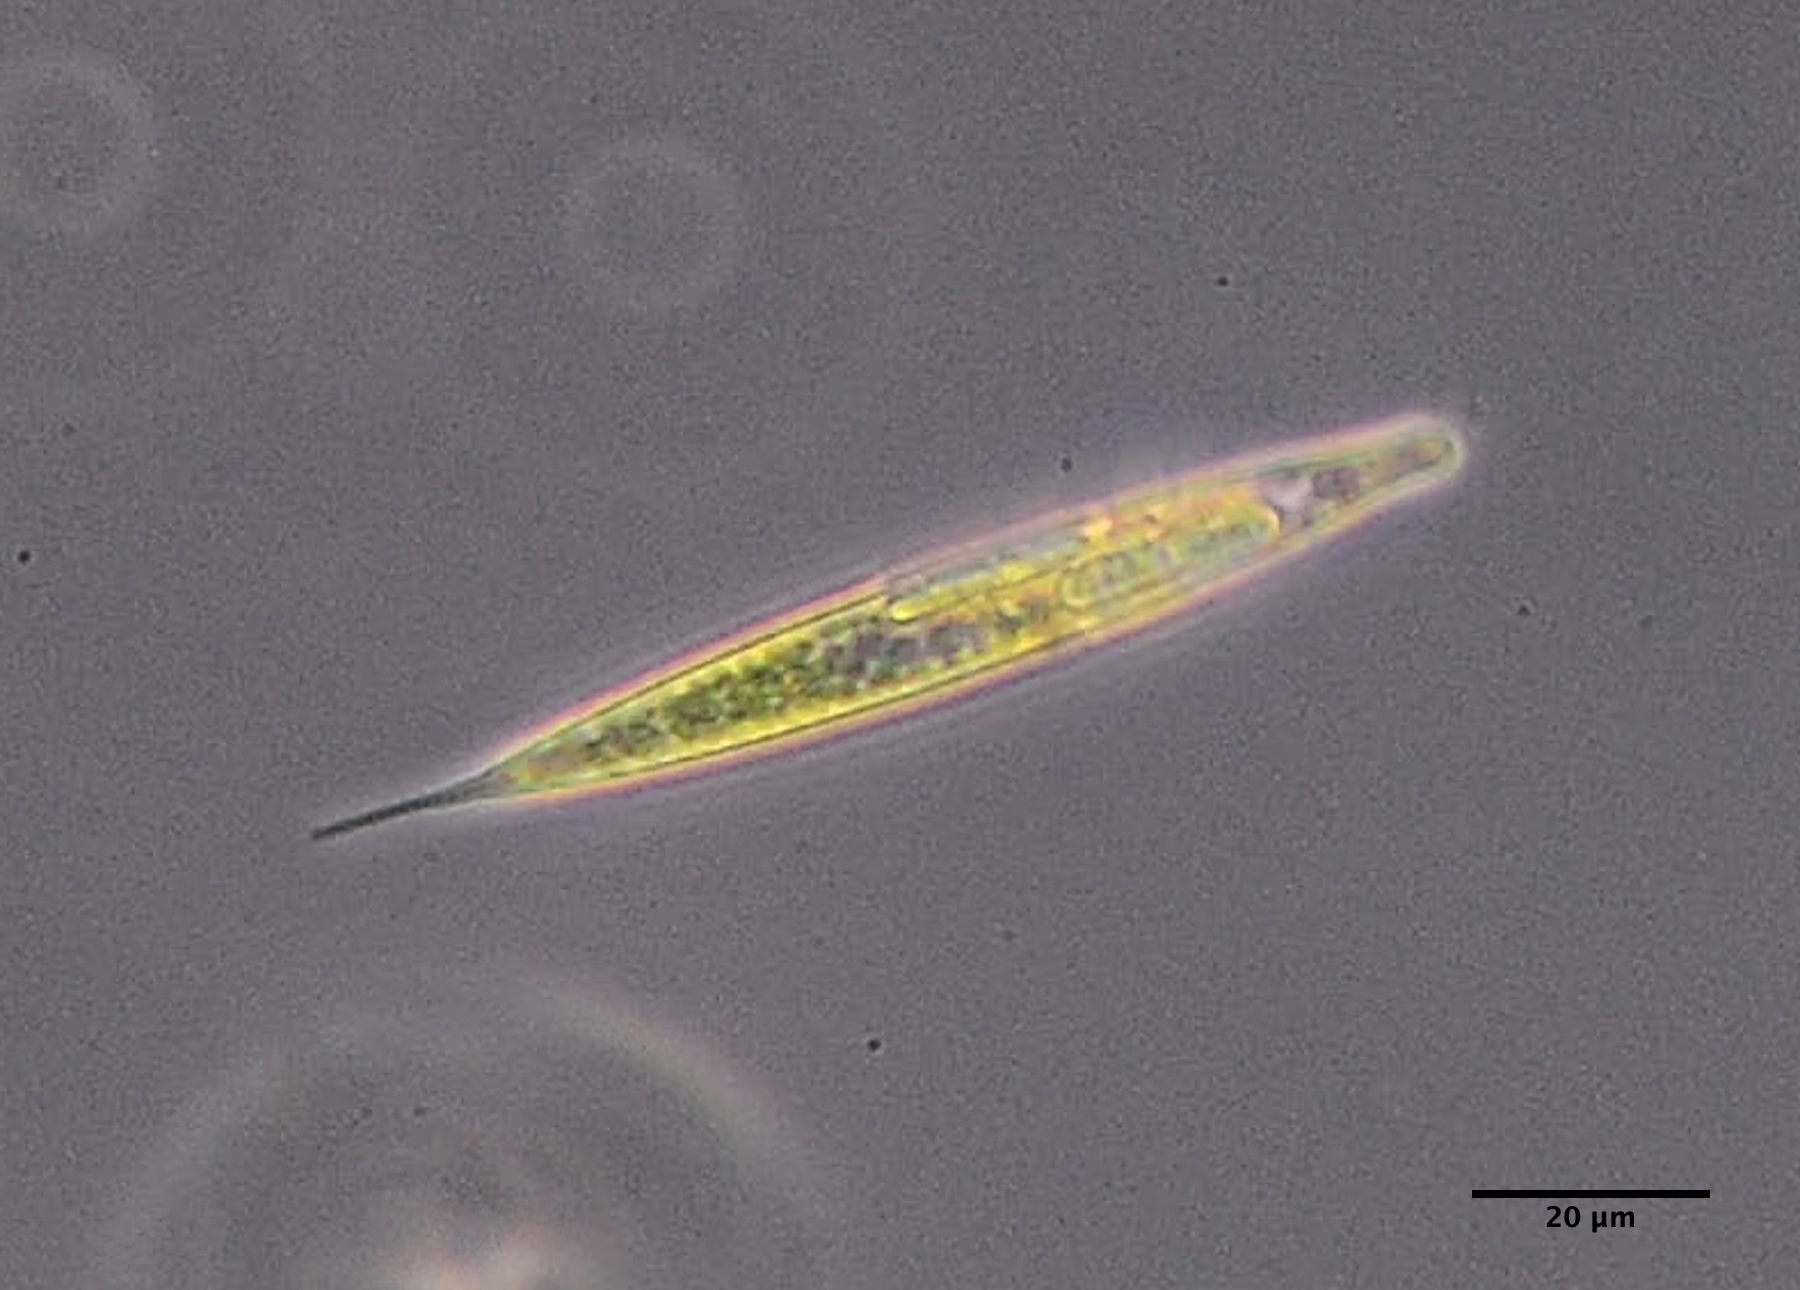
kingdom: Protozoa
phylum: Euglenozoa
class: Euglenoidea
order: Euglenida
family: Phacidae
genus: Lepocinclis
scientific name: Lepocinclis acus
